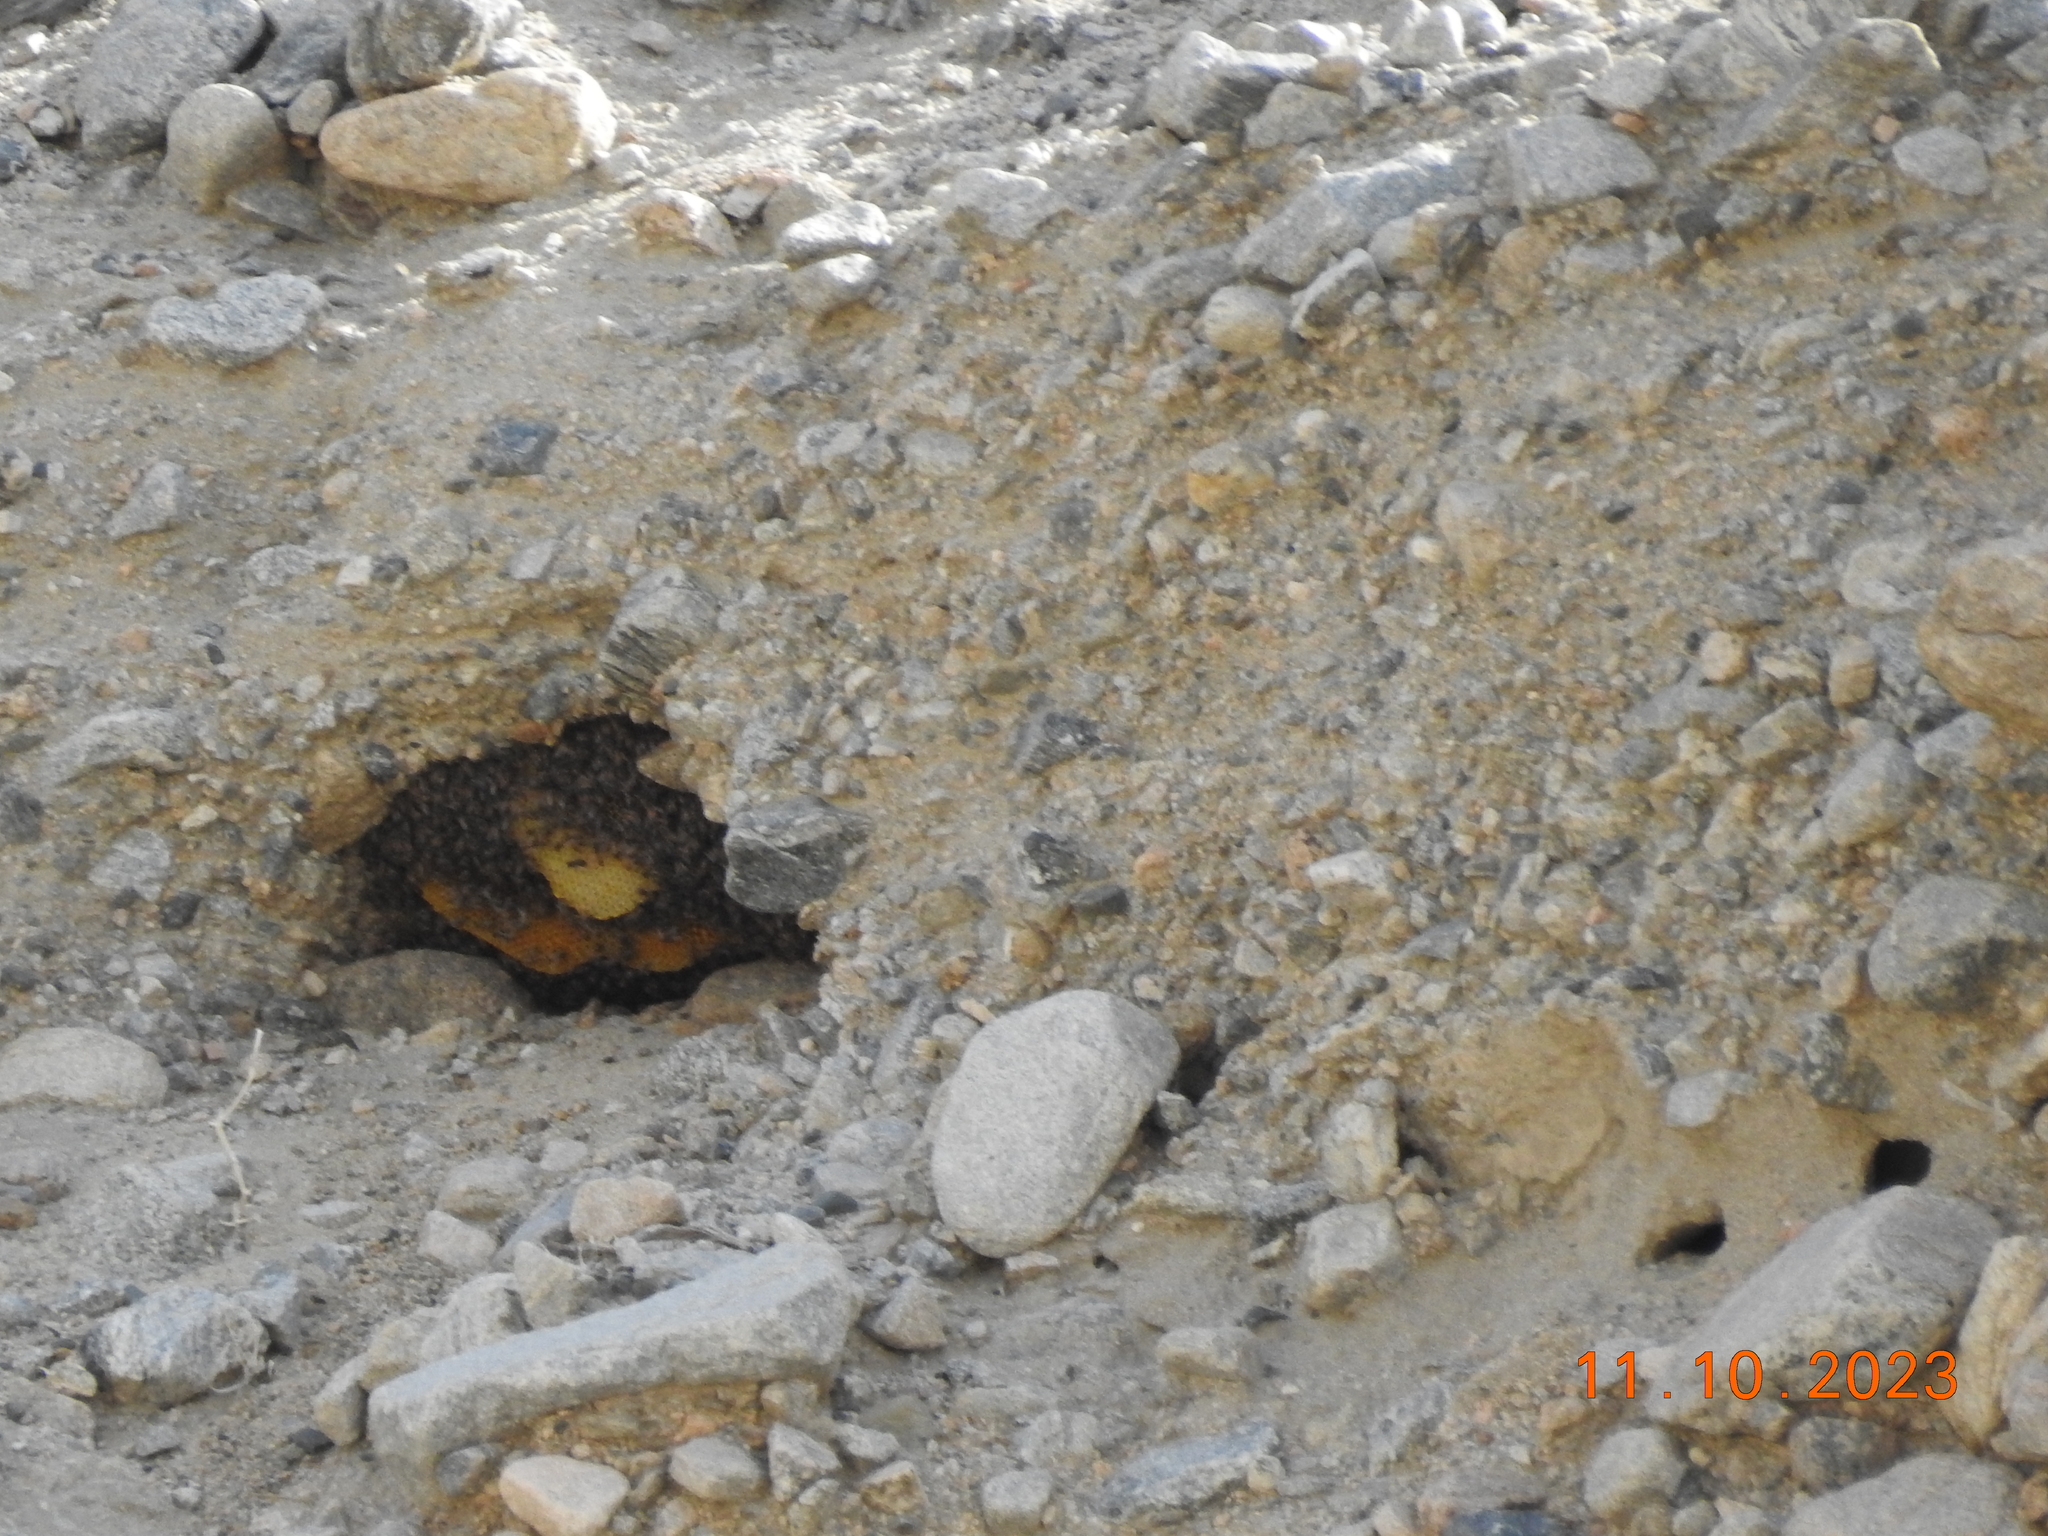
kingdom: Animalia
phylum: Arthropoda
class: Insecta
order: Hymenoptera
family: Apidae
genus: Apis
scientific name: Apis mellifera
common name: Honey bee
